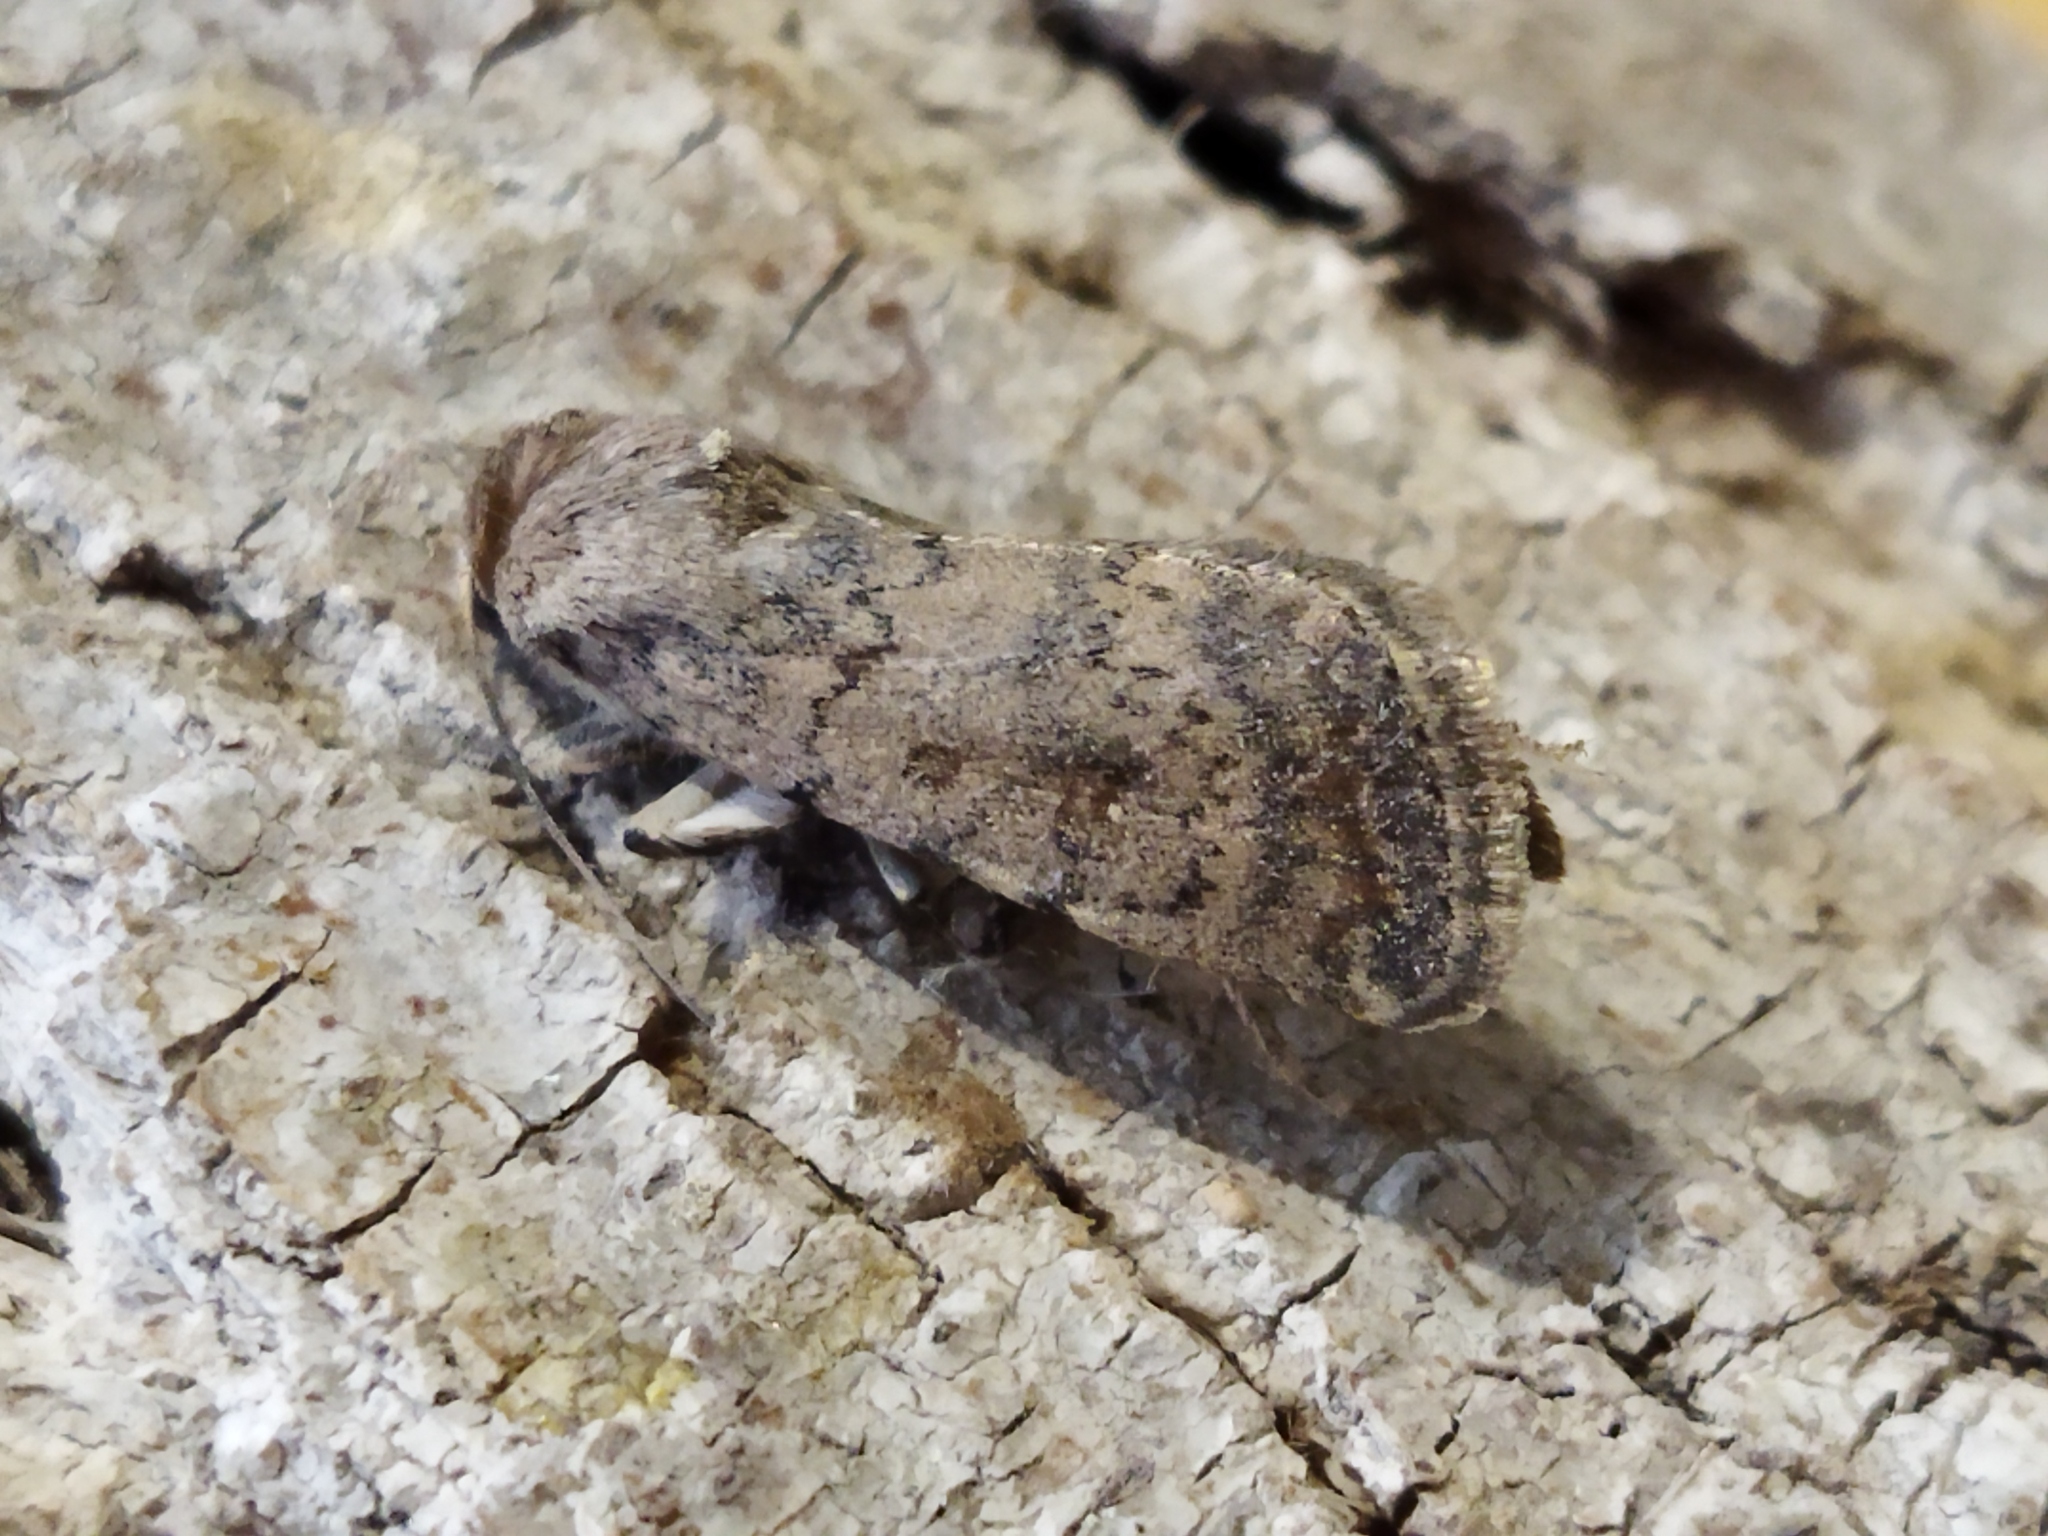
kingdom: Animalia
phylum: Arthropoda
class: Insecta
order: Lepidoptera
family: Noctuidae
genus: Caradrina
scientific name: Caradrina clavipalpis
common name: Pale mottled willow
